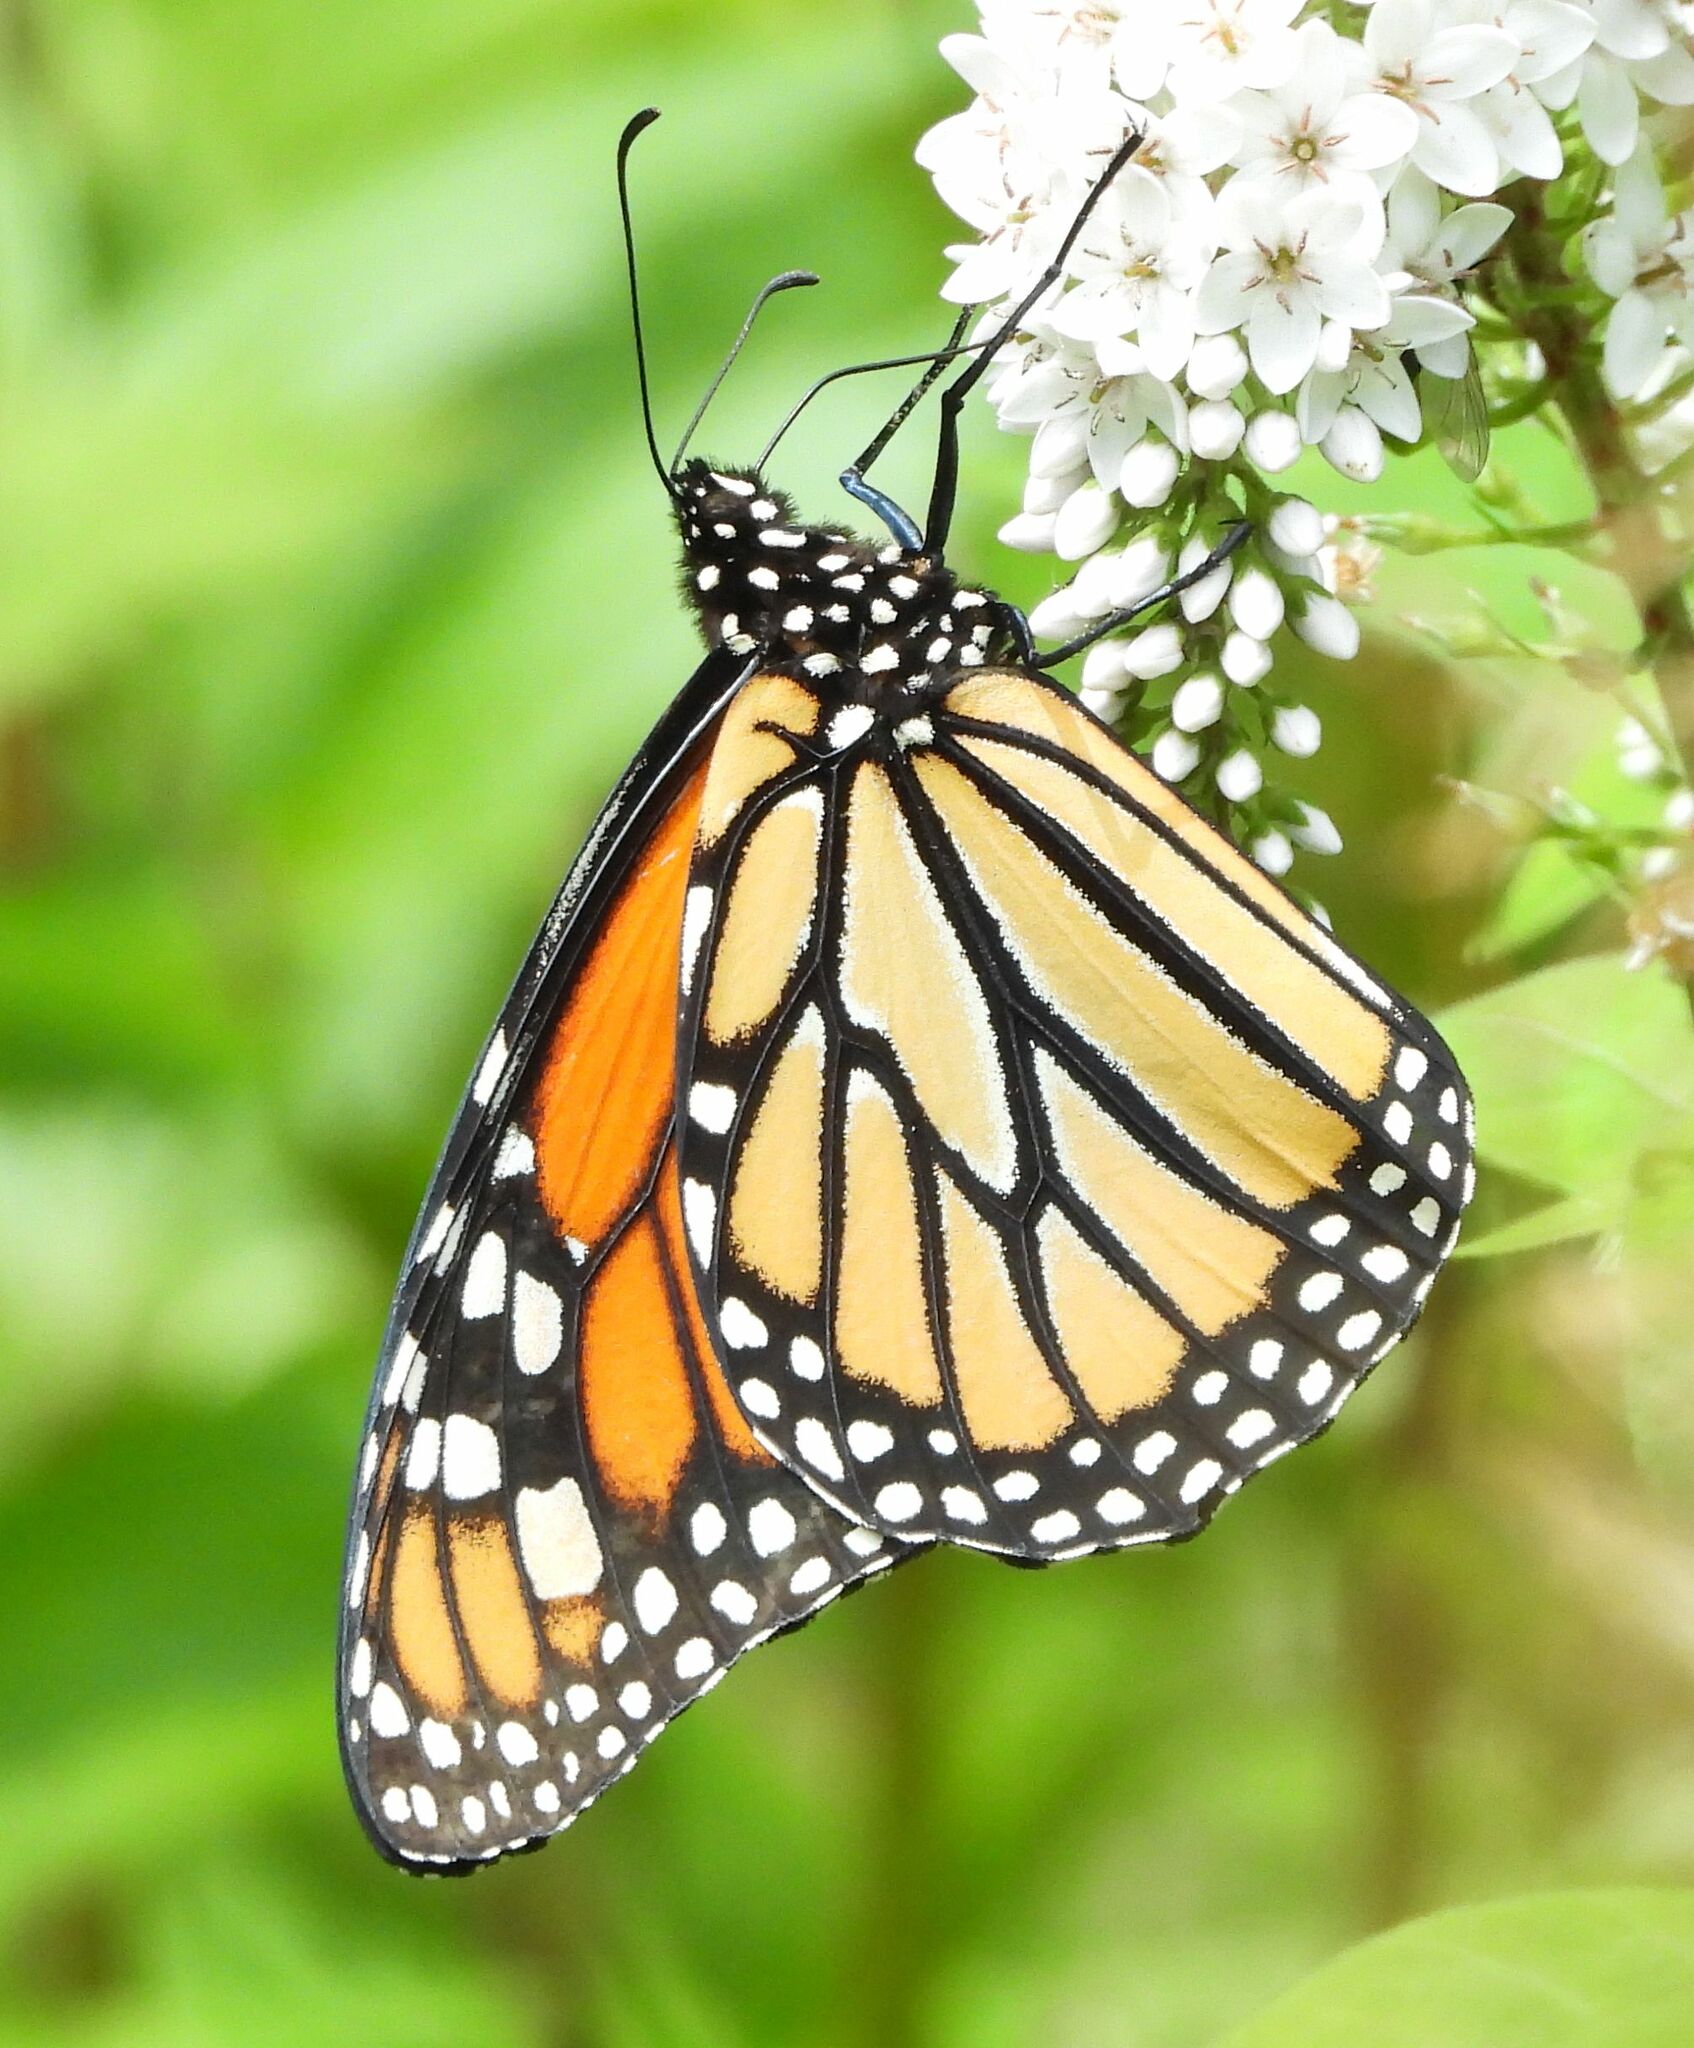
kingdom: Animalia
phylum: Arthropoda
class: Insecta
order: Lepidoptera
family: Nymphalidae
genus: Danaus
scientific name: Danaus plexippus
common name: Monarch
